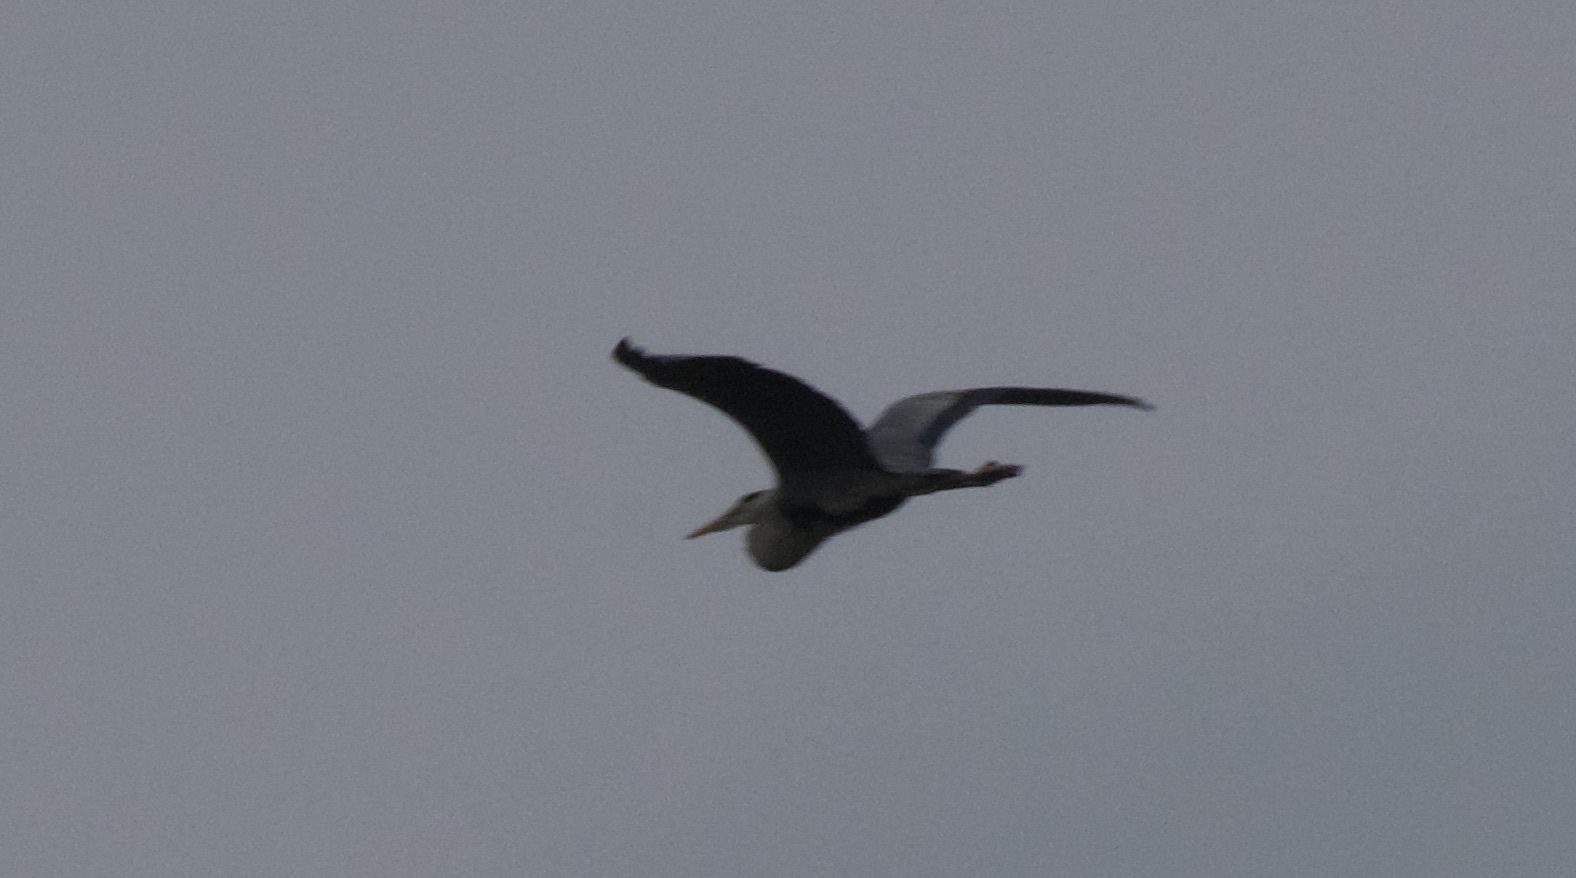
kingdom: Animalia
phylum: Chordata
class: Aves
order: Pelecaniformes
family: Ardeidae
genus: Ardea
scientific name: Ardea cinerea
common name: Grey heron
